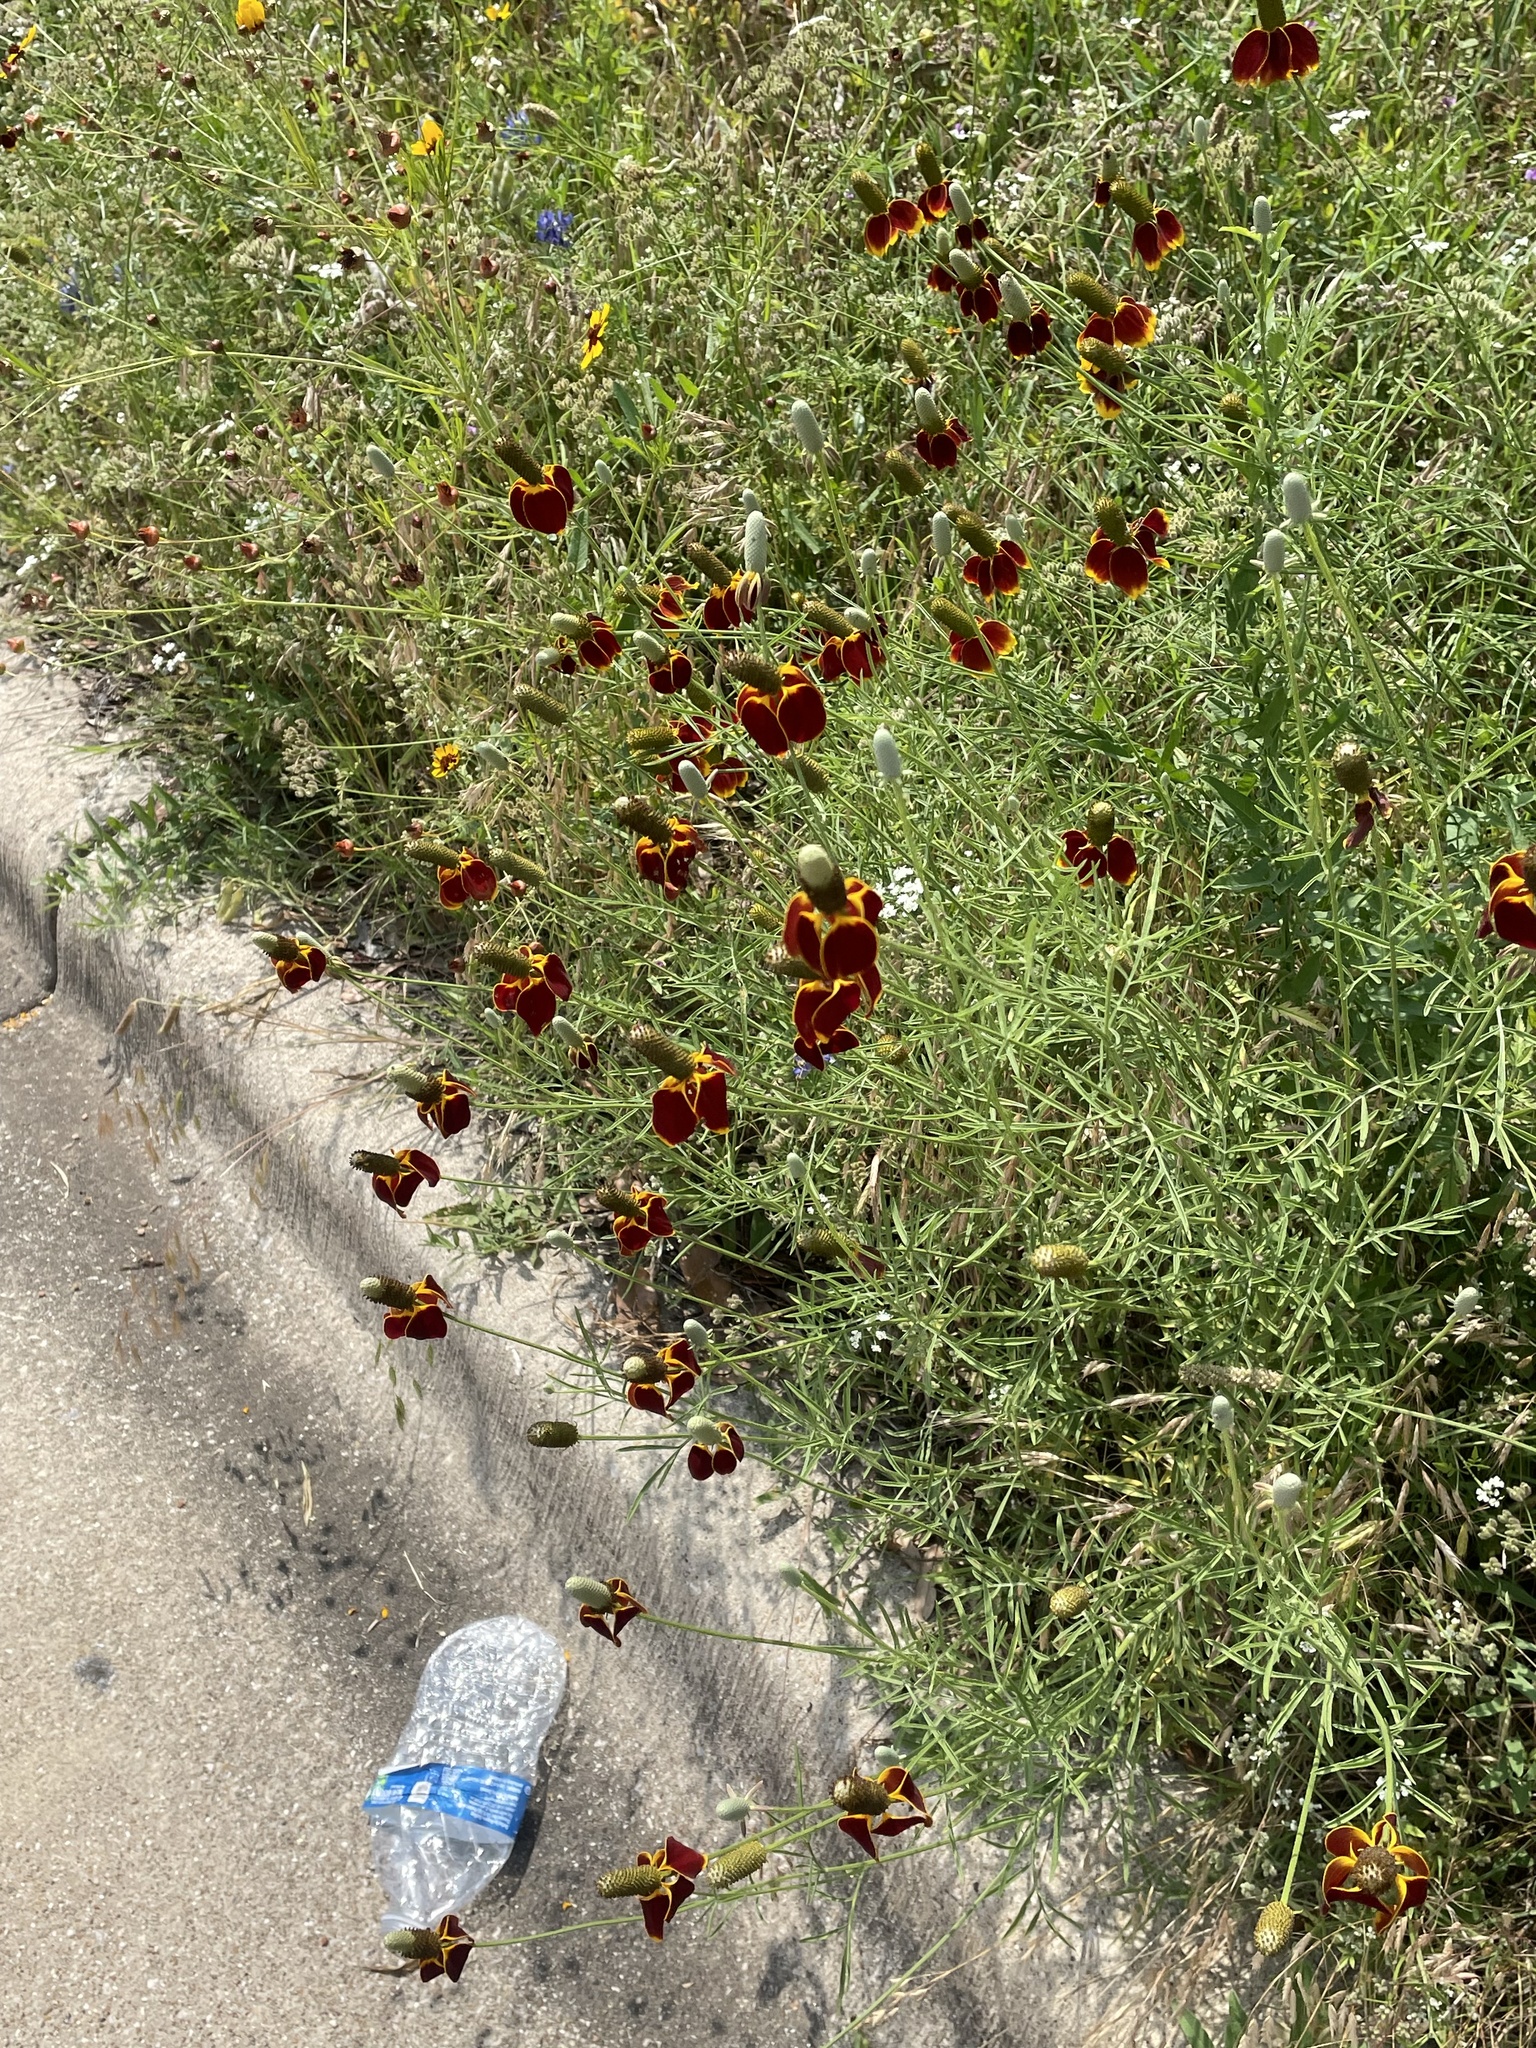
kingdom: Plantae
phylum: Tracheophyta
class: Magnoliopsida
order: Asterales
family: Asteraceae
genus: Ratibida
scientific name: Ratibida columnifera
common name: Prairie coneflower
